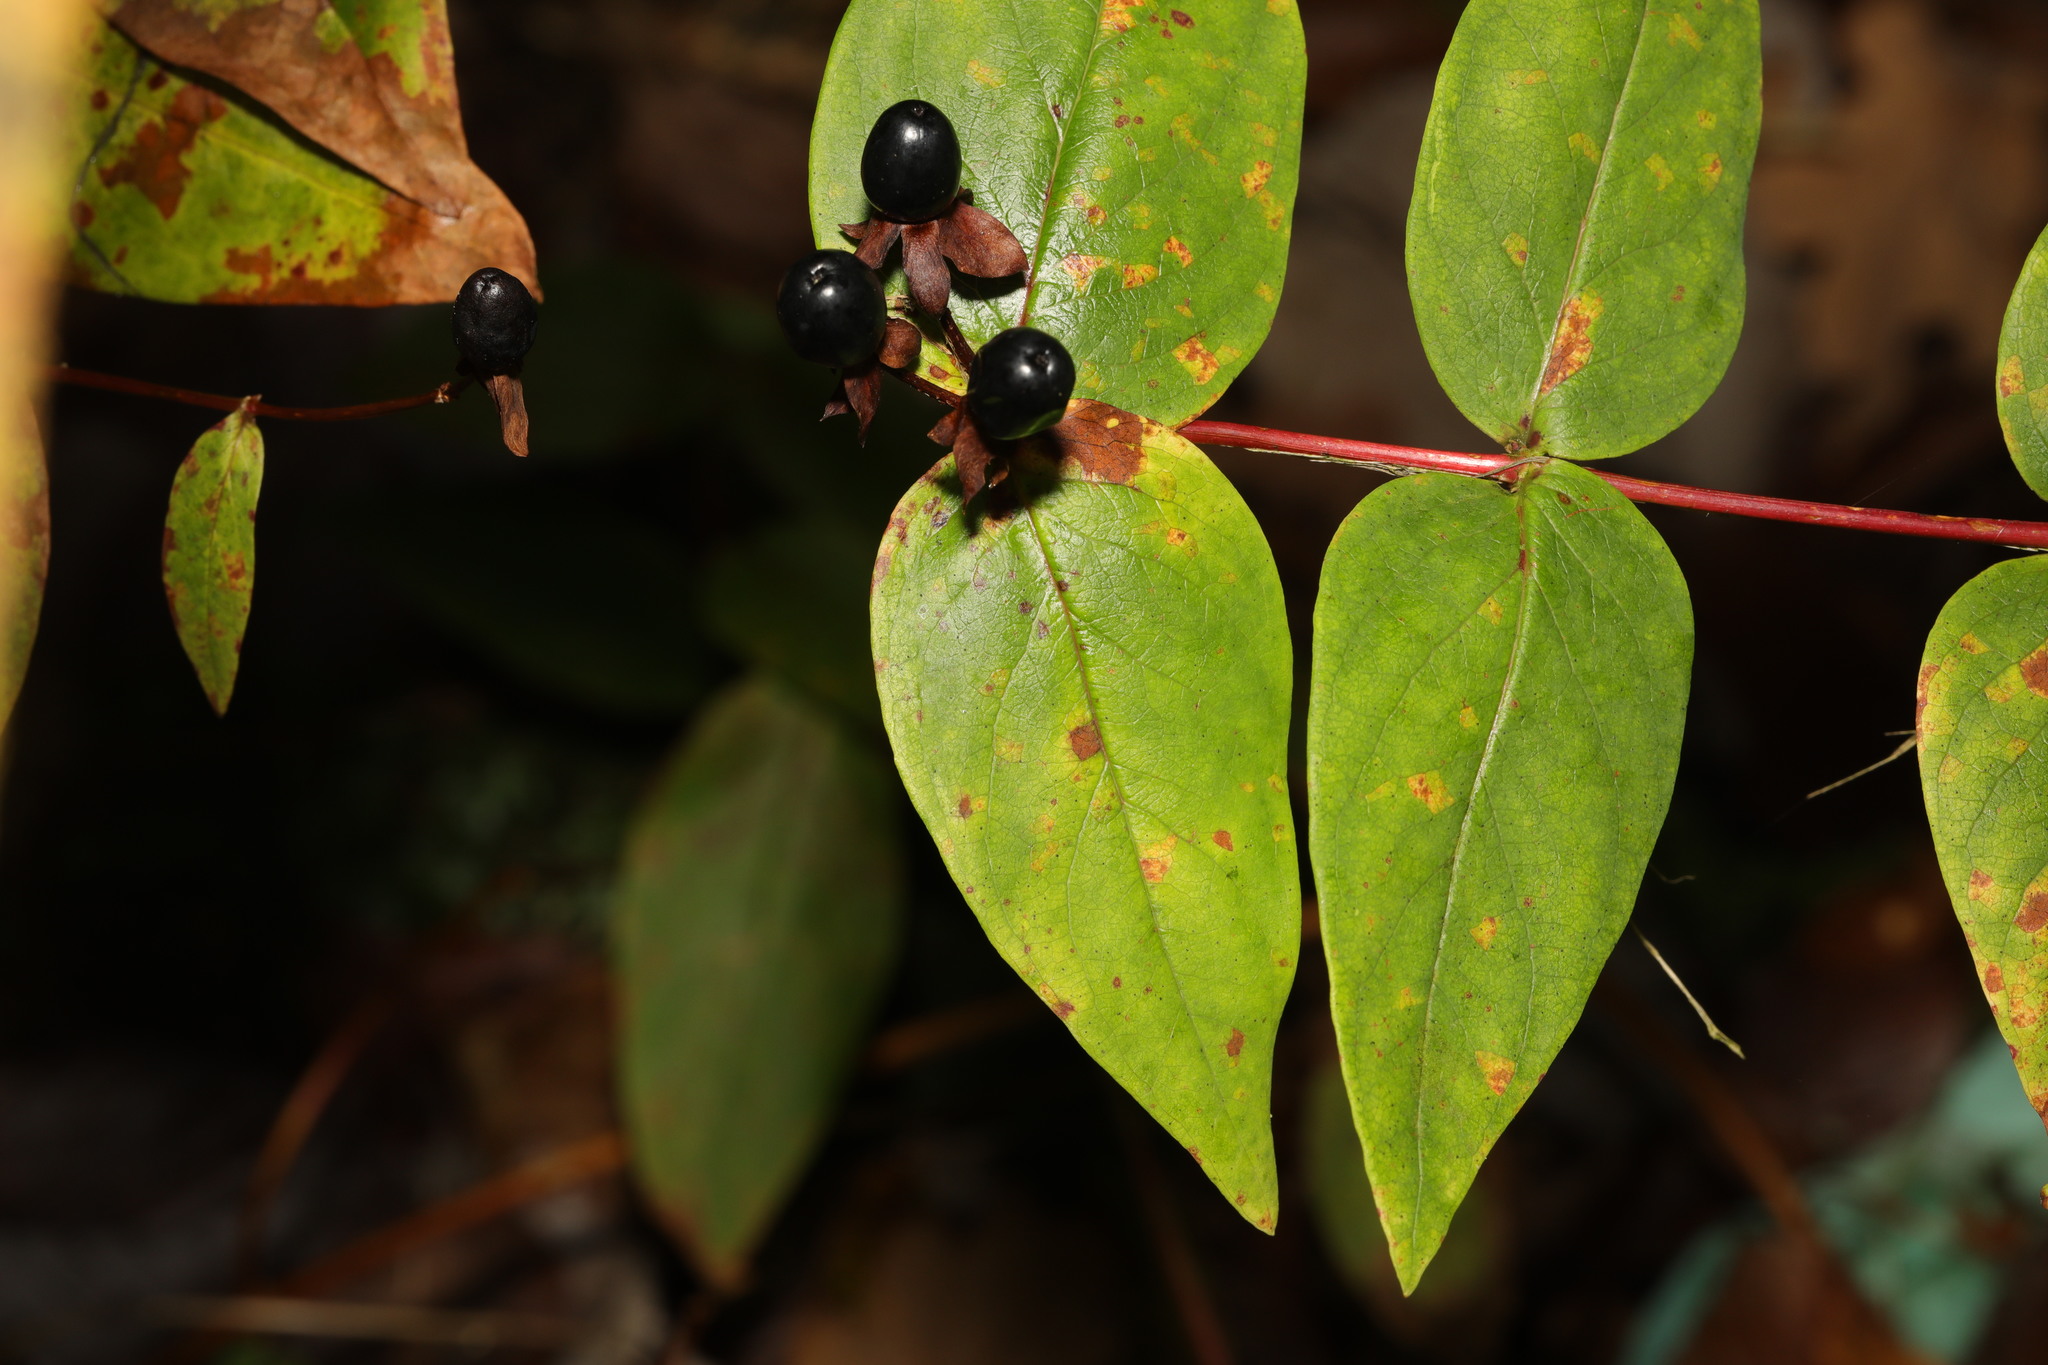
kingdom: Plantae
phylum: Tracheophyta
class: Magnoliopsida
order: Malpighiales
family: Hypericaceae
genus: Hypericum
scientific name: Hypericum androsaemum
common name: Sweet-amber
